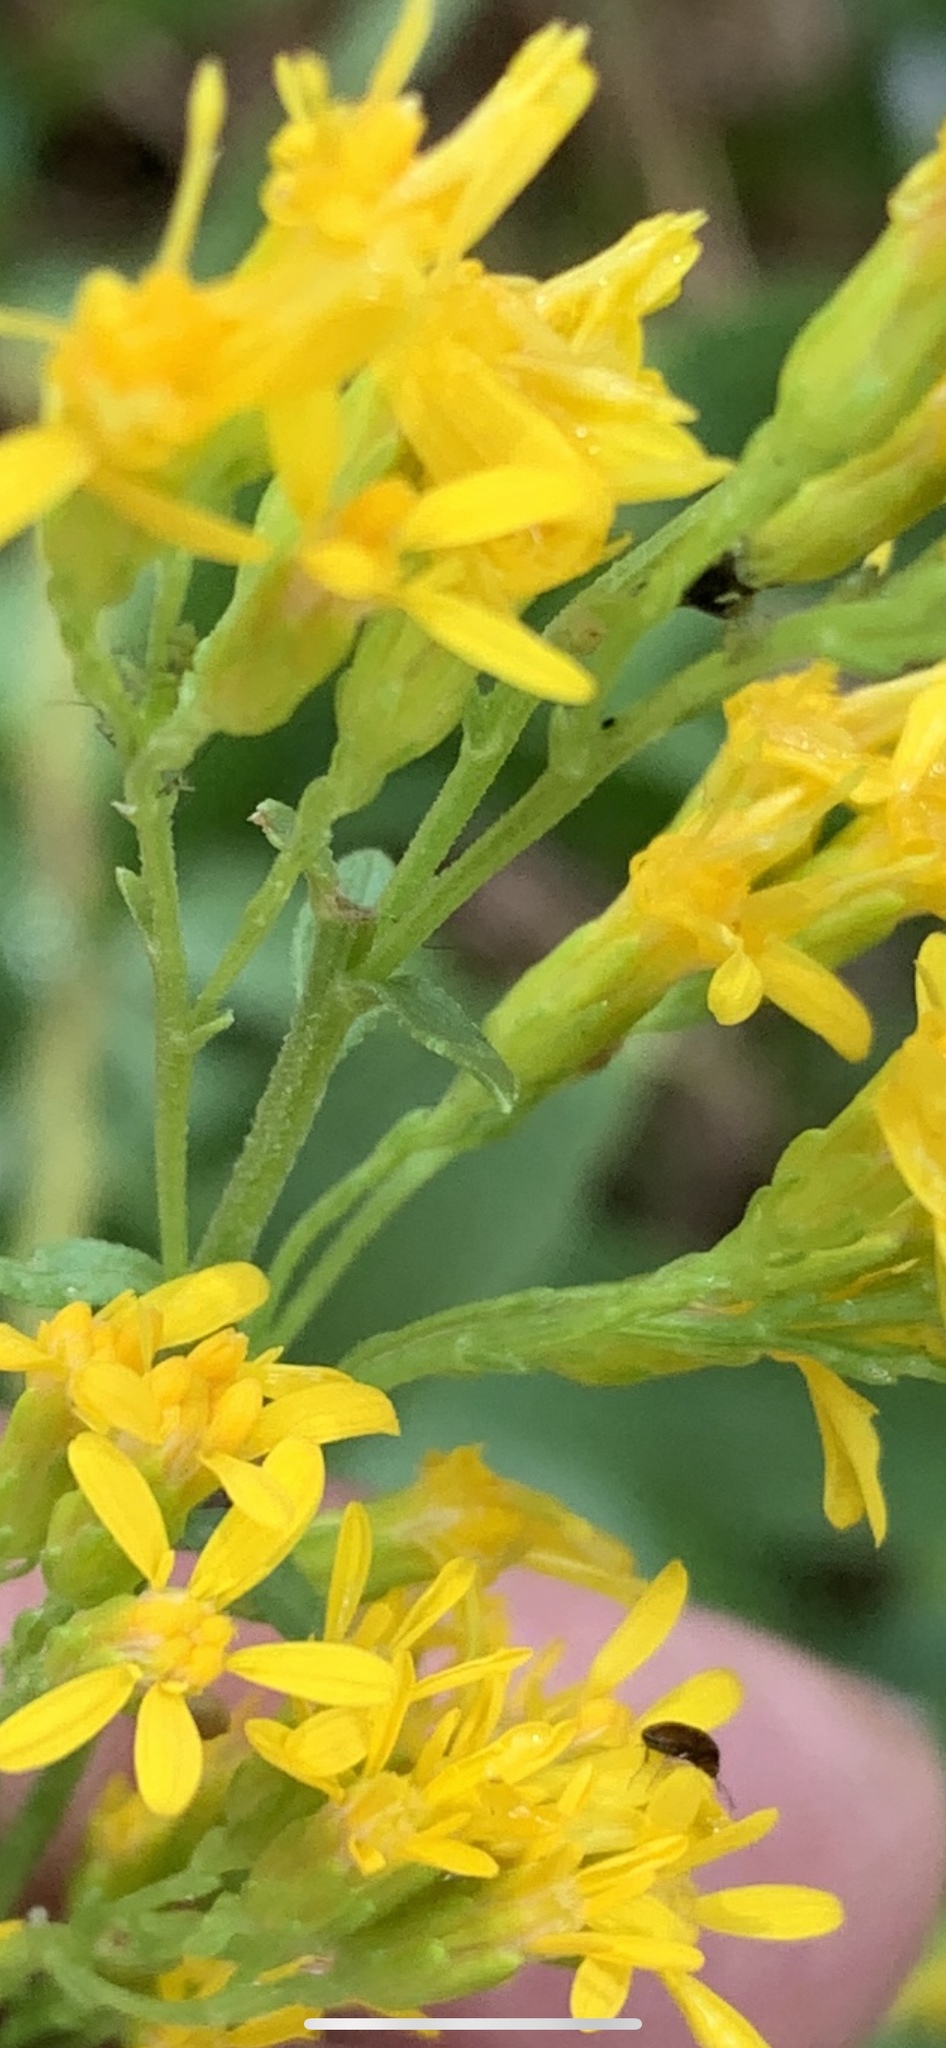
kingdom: Plantae
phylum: Tracheophyta
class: Magnoliopsida
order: Asterales
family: Asteraceae
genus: Solidago
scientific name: Solidago velutina
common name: Three-nerve goldenrod
